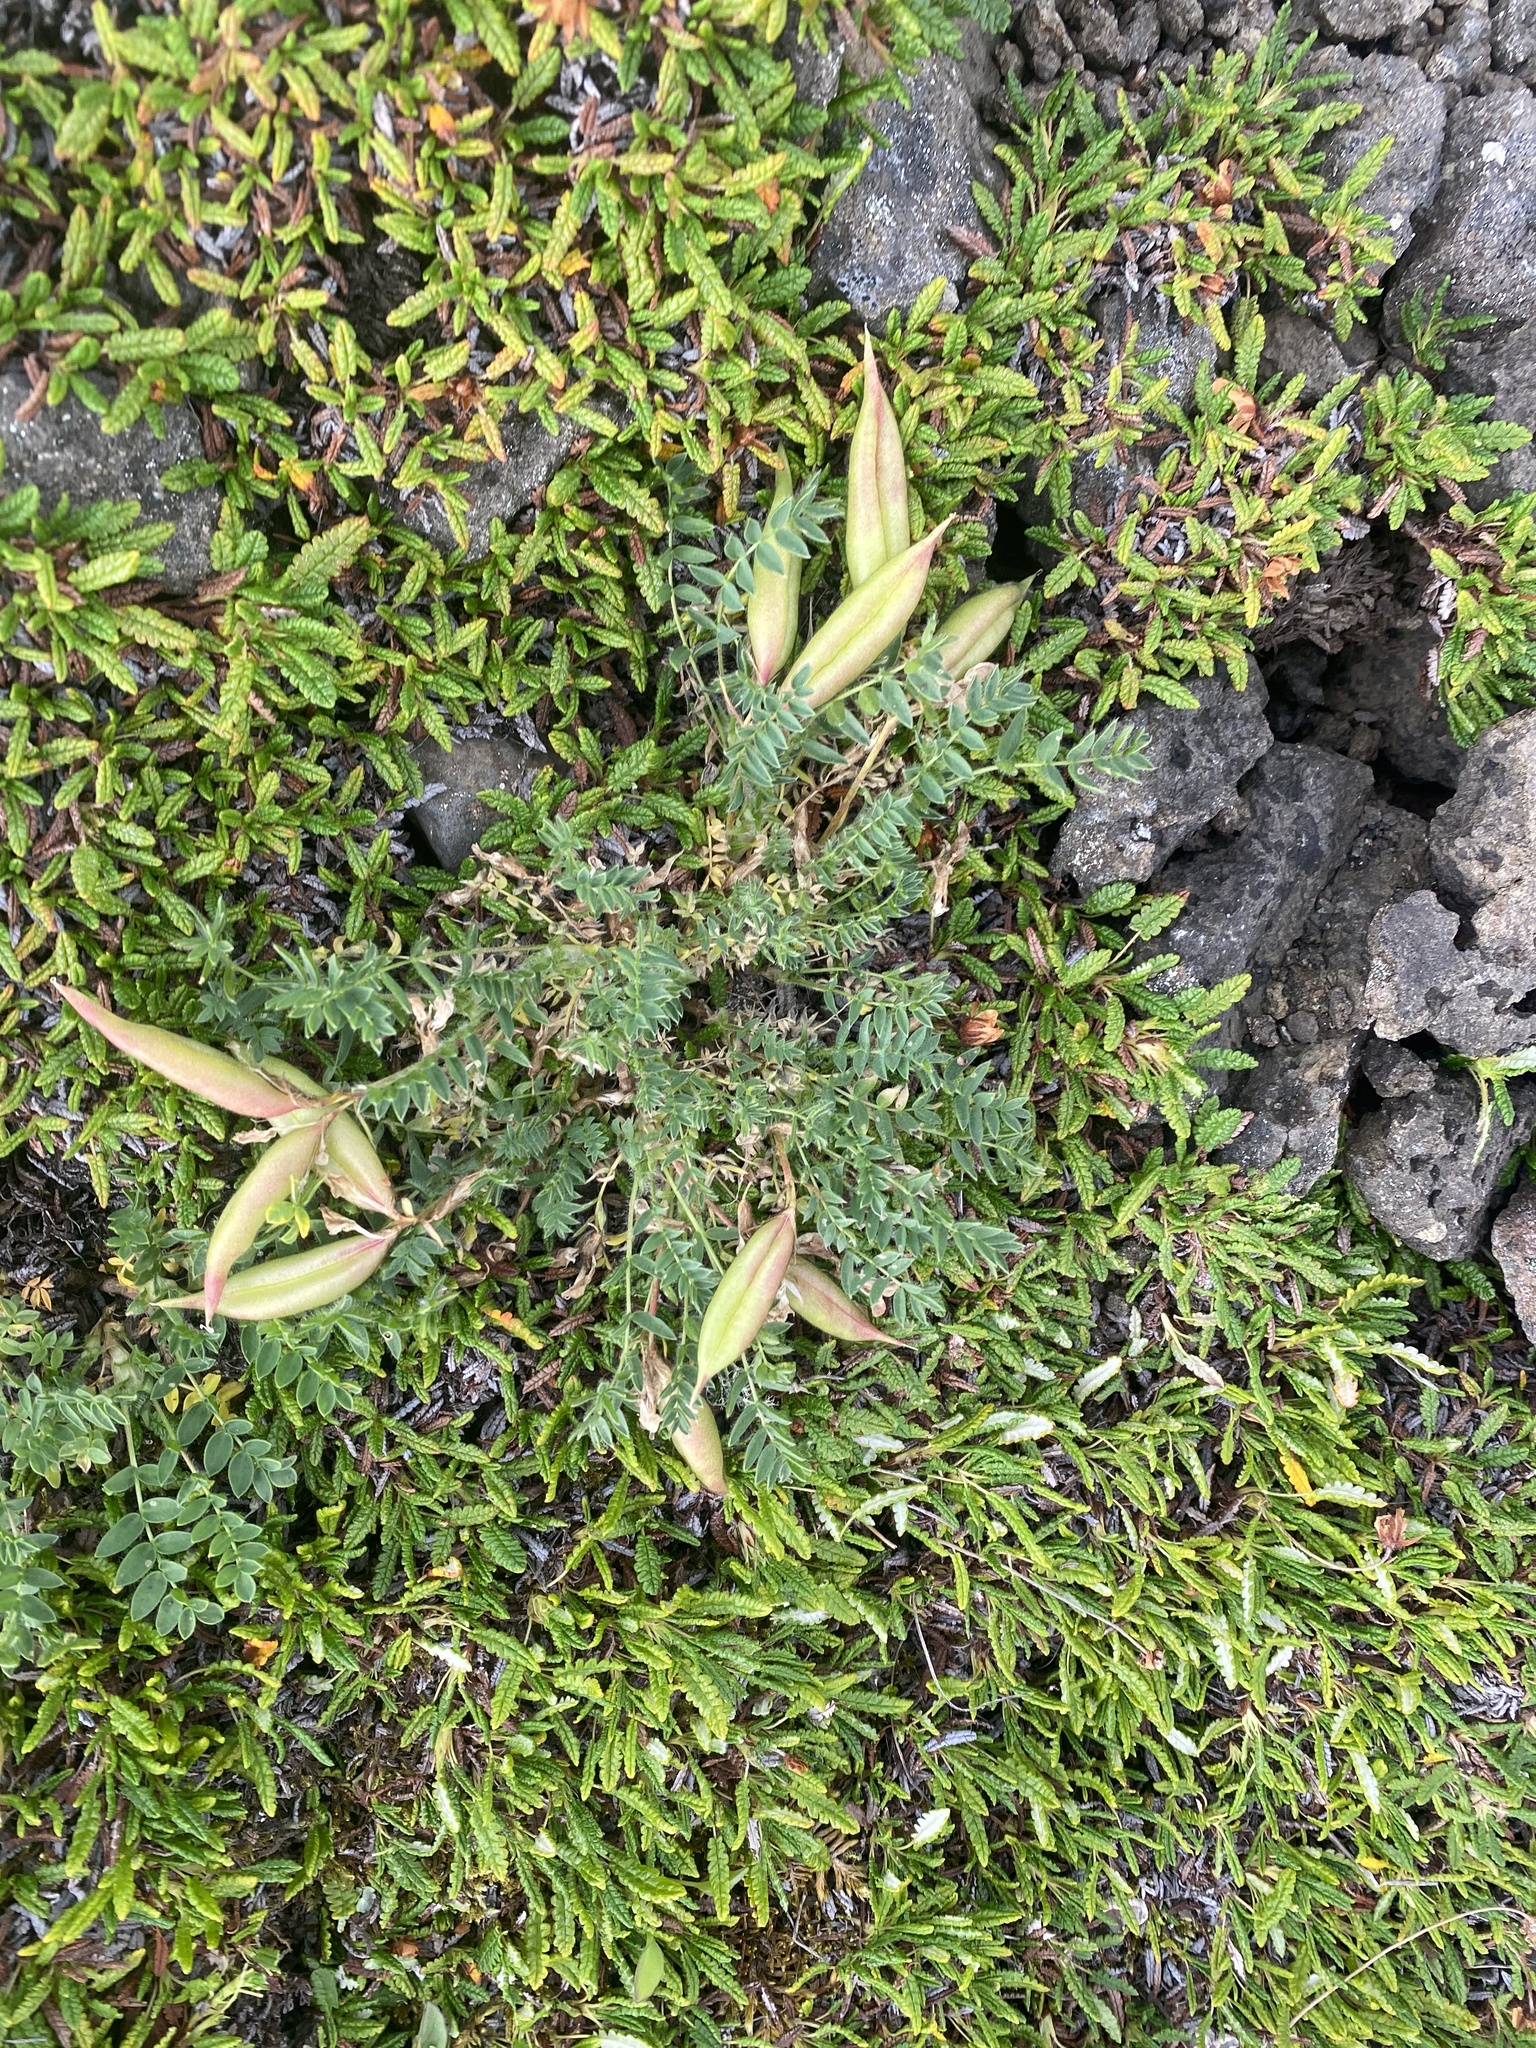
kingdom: Plantae
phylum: Tracheophyta
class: Magnoliopsida
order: Fabales
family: Fabaceae
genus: Oxytropis
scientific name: Oxytropis nigrescens
